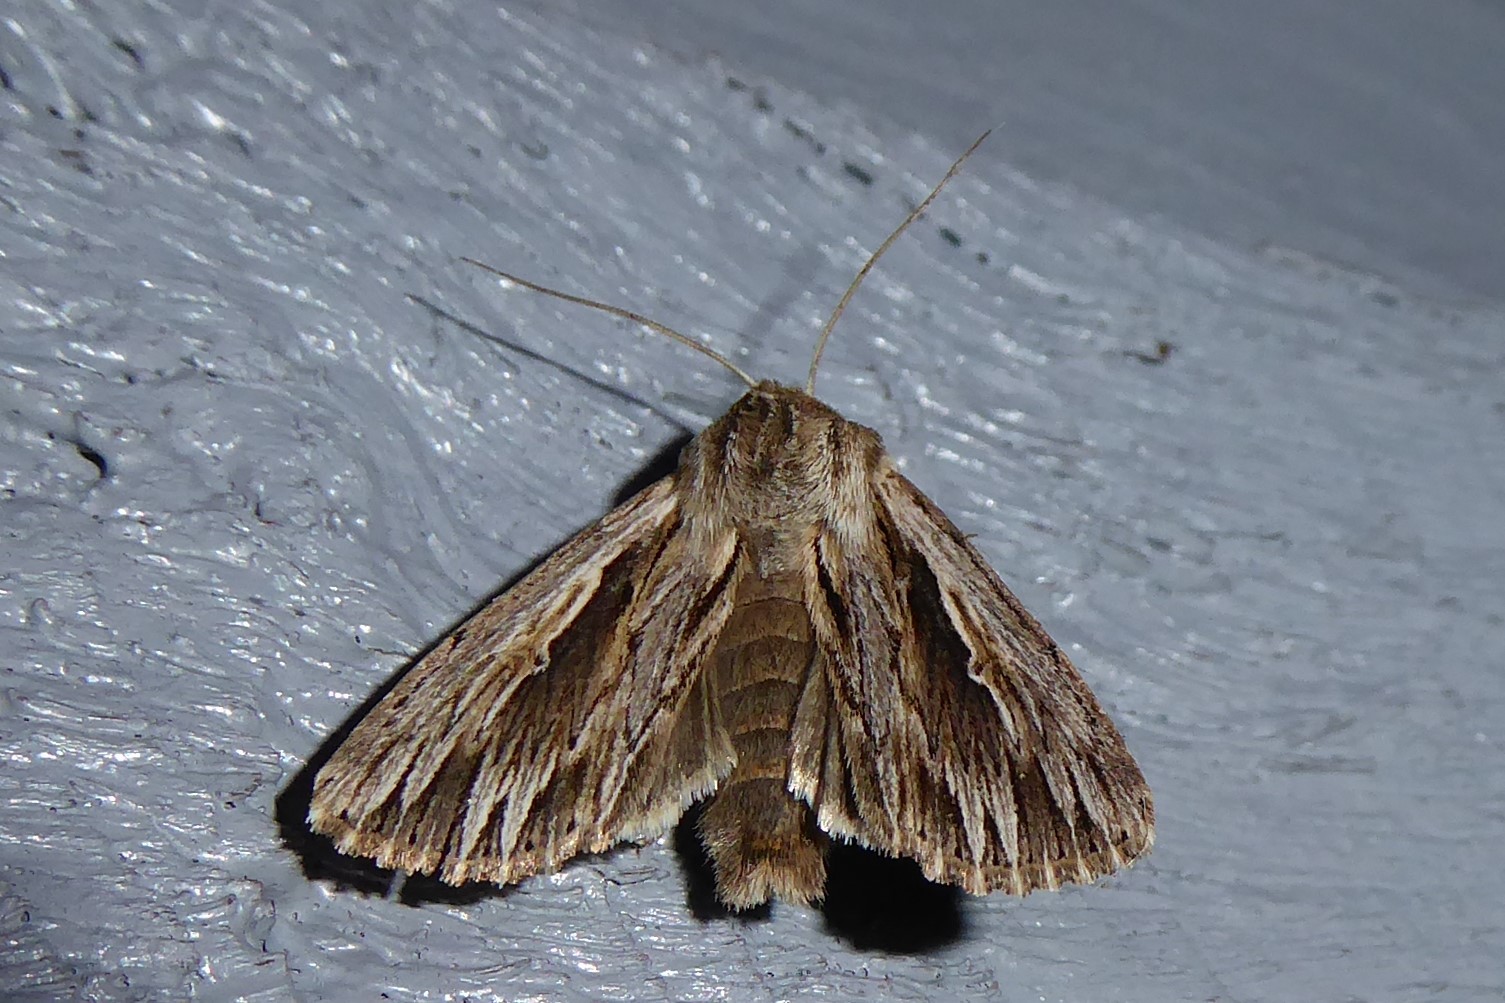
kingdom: Animalia
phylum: Arthropoda
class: Insecta
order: Lepidoptera
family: Noctuidae
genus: Persectania
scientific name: Persectania aversa
